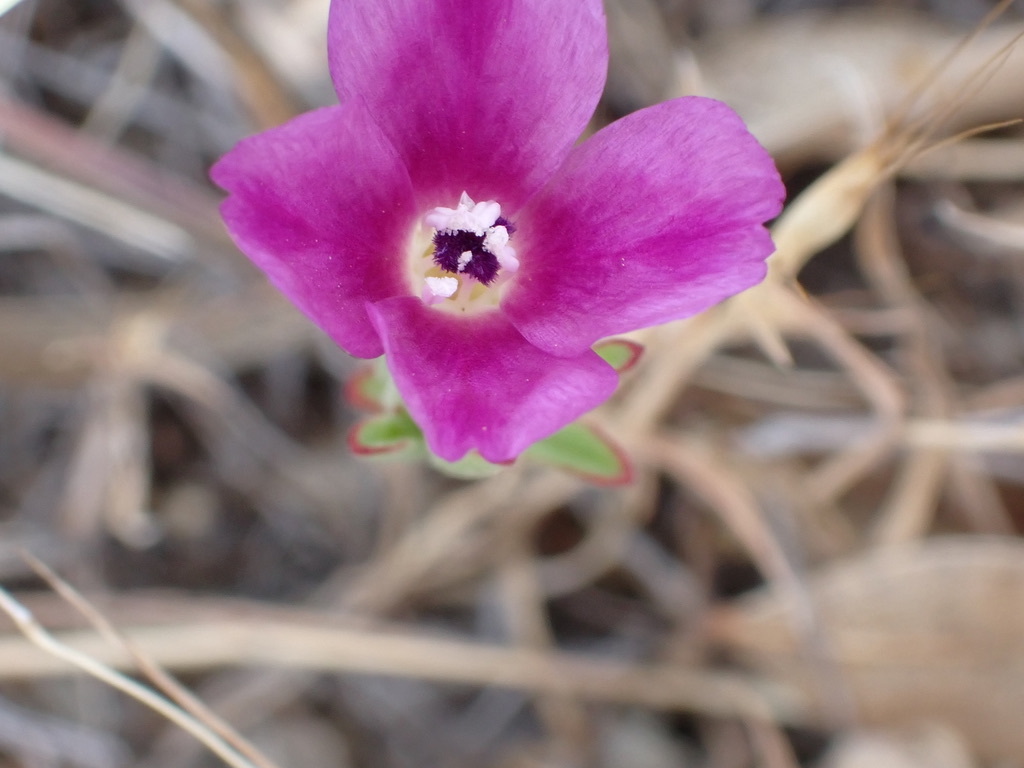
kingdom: Plantae
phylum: Tracheophyta
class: Magnoliopsida
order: Myrtales
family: Onagraceae
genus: Clarkia
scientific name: Clarkia purpurea
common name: Purple clarkia
